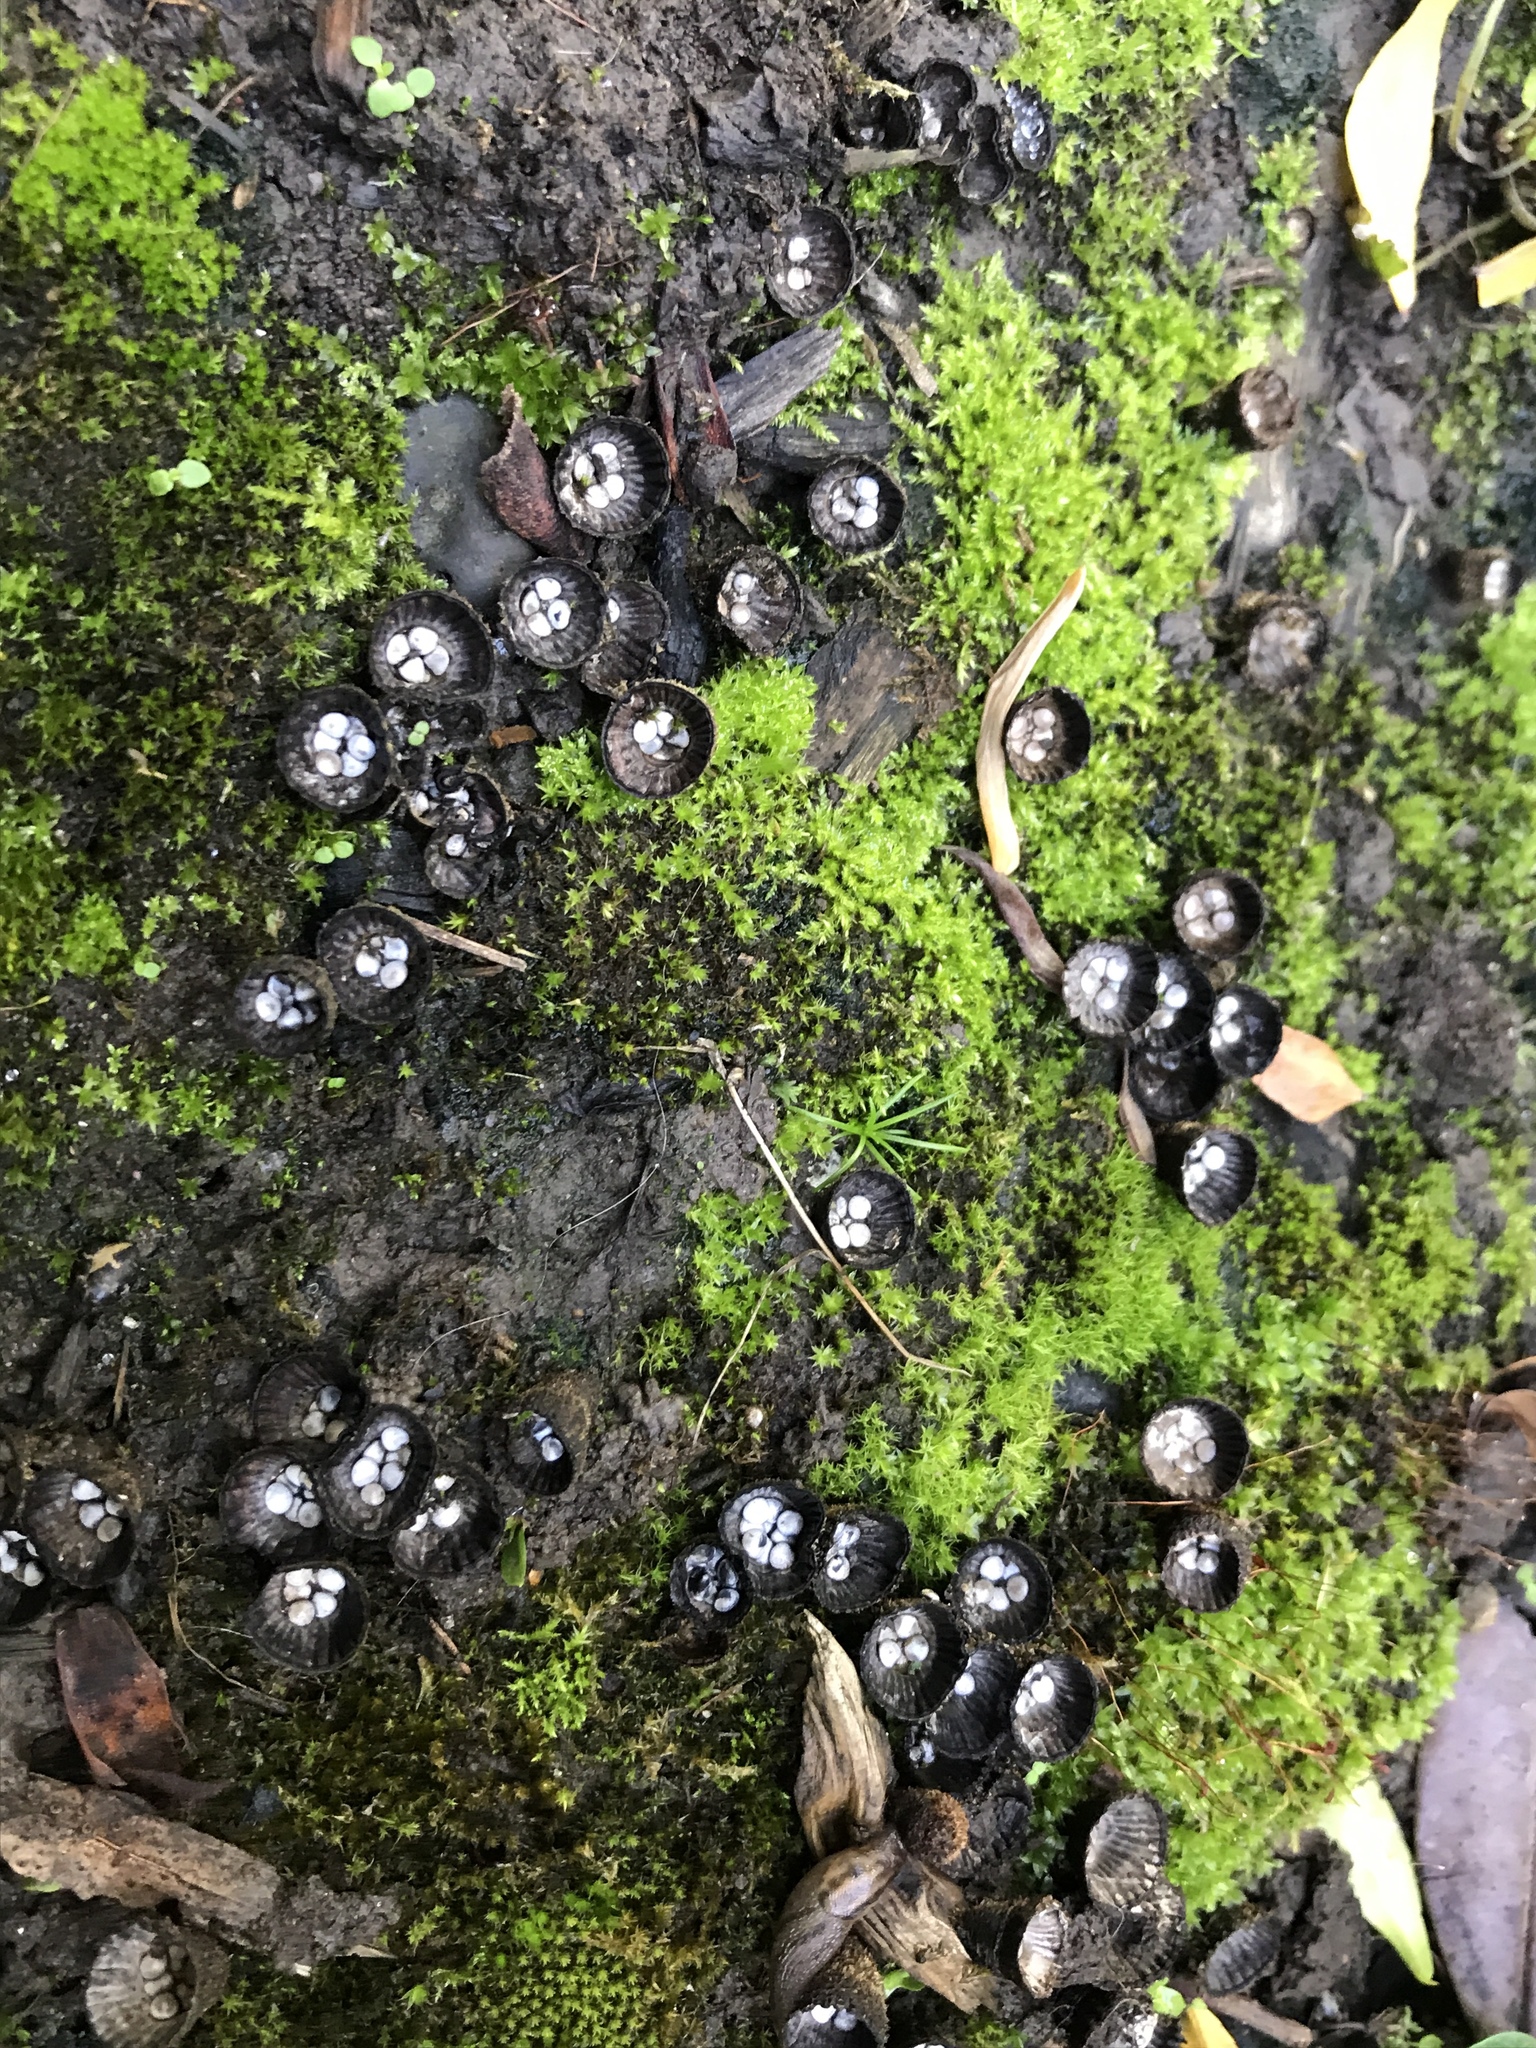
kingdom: Fungi
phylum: Basidiomycota
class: Agaricomycetes
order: Agaricales
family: Agaricaceae
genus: Cyathus
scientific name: Cyathus striatus
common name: Fluted bird's nest
